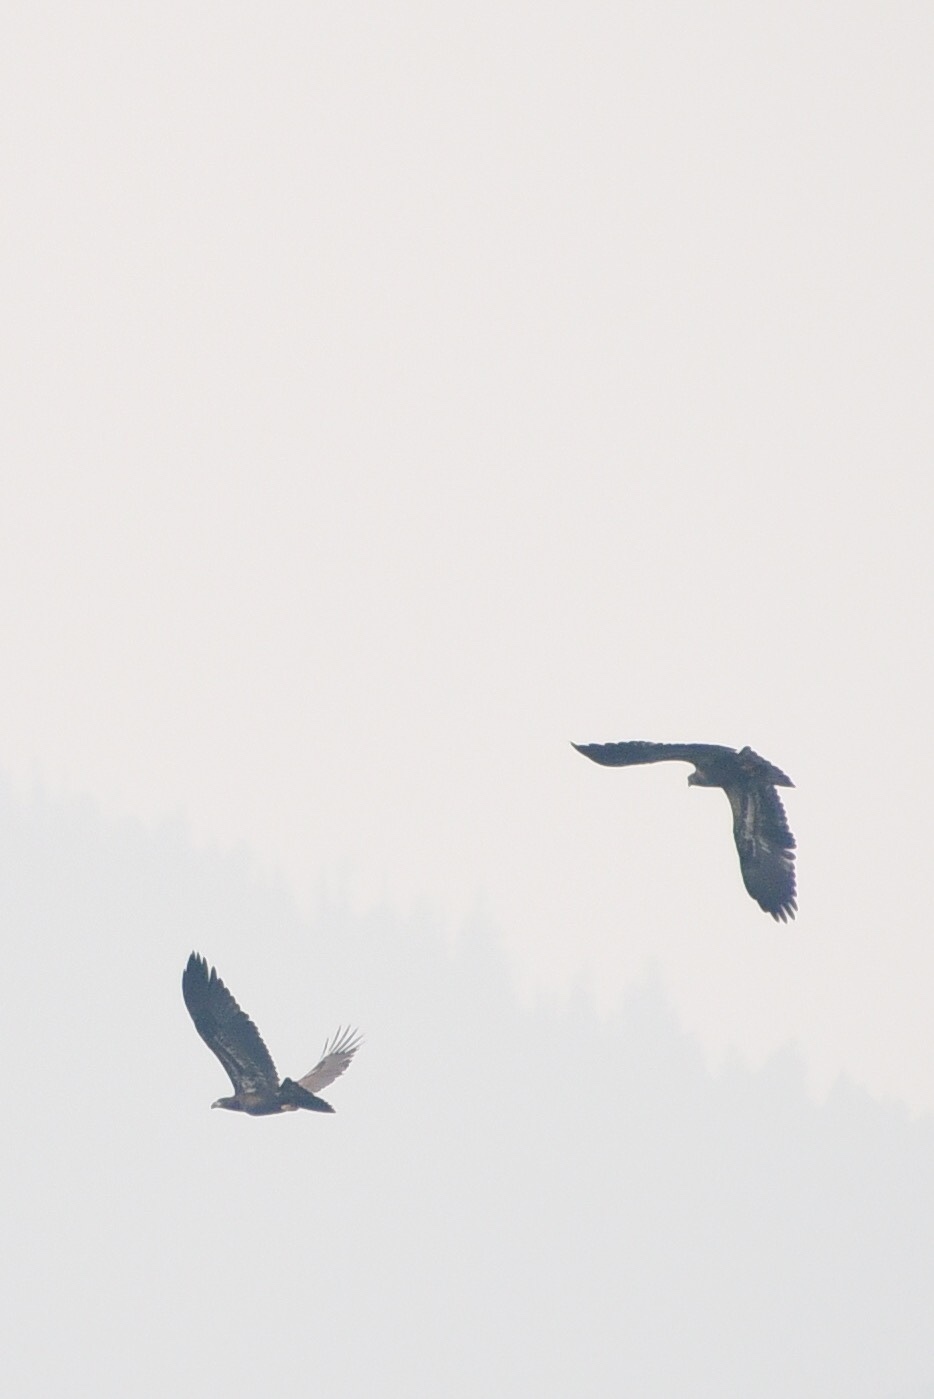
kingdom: Animalia
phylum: Chordata
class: Aves
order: Accipitriformes
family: Accipitridae
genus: Haliaeetus
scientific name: Haliaeetus leucocephalus
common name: Bald eagle
